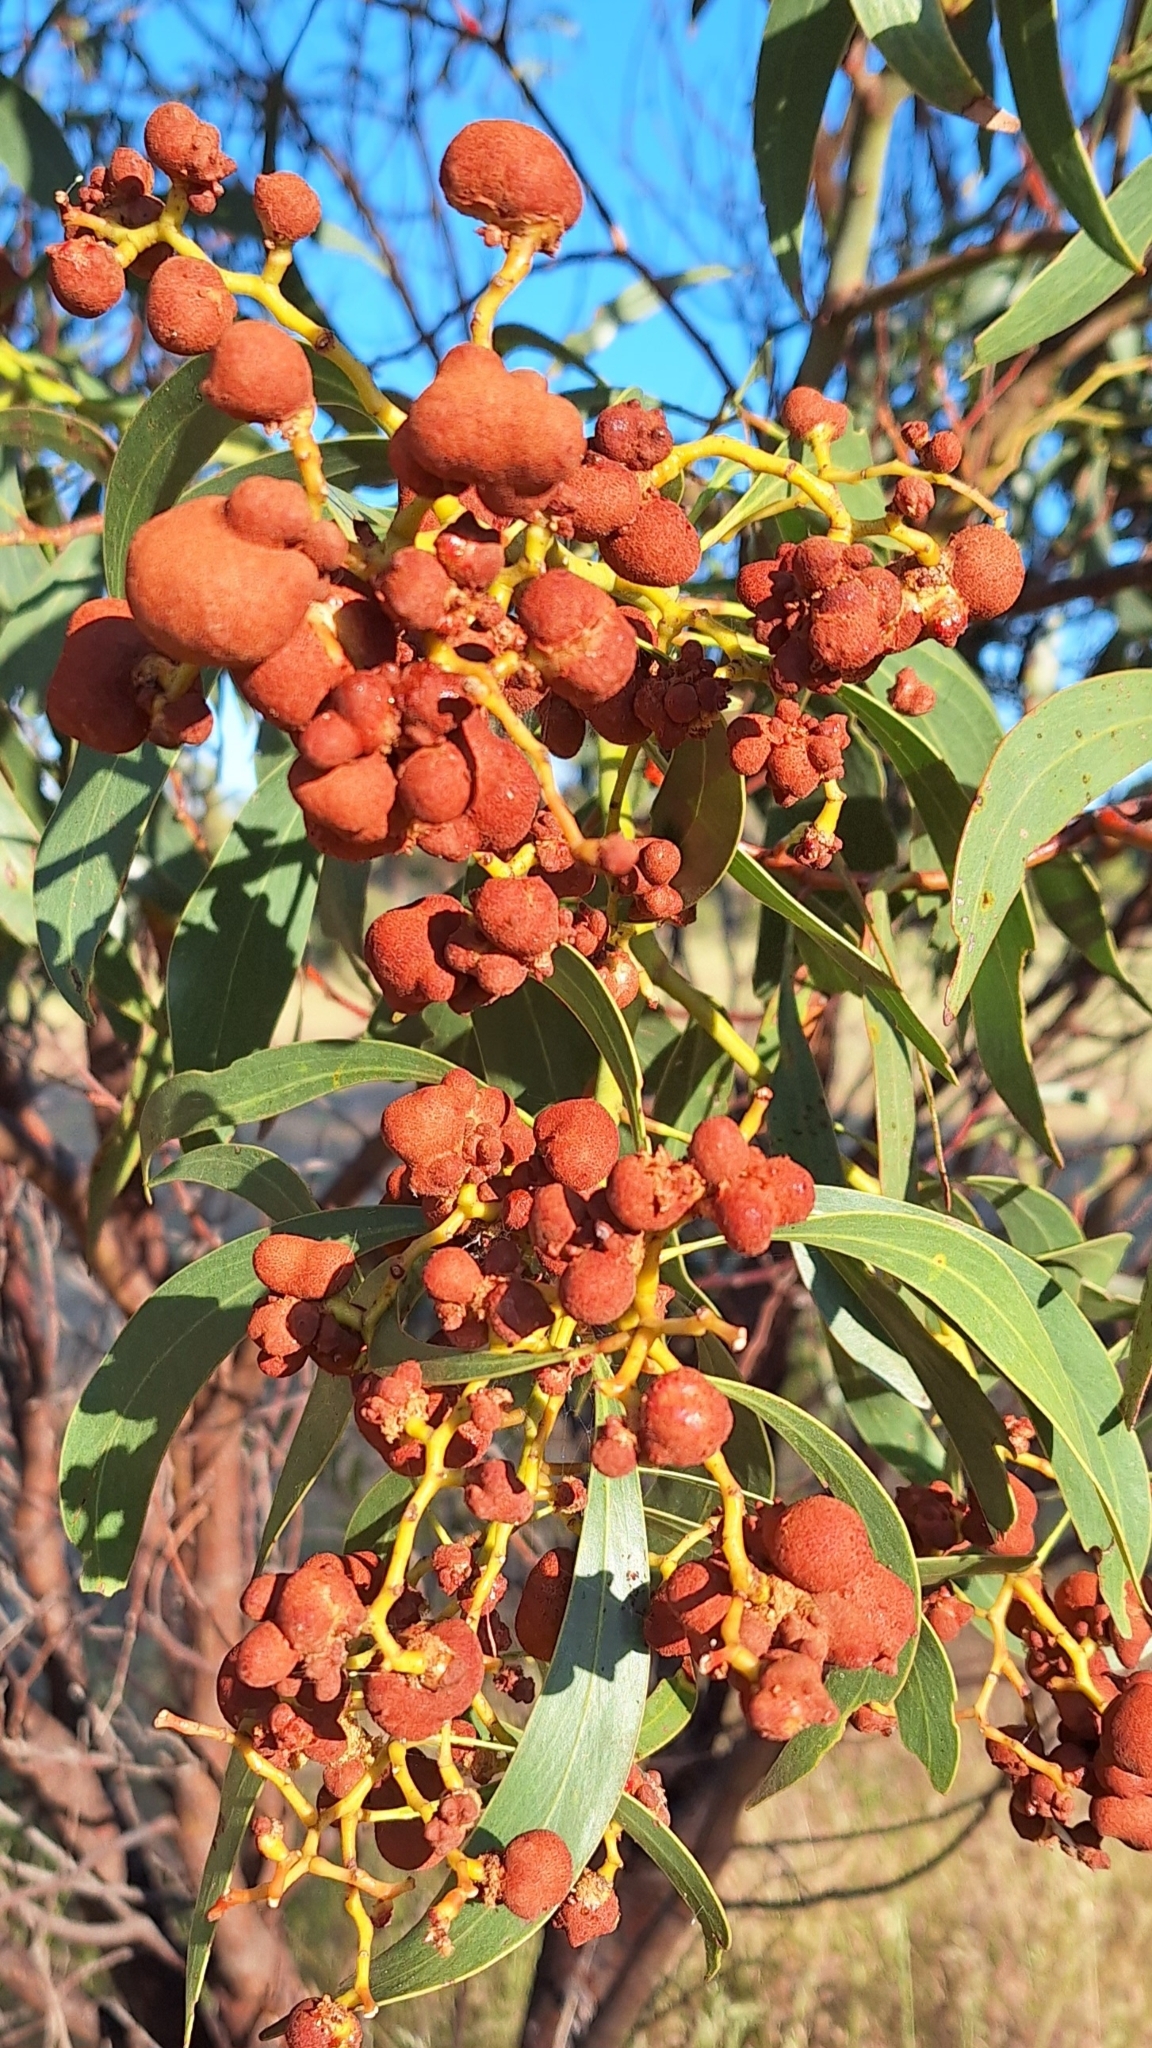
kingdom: Fungi
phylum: Basidiomycota
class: Pucciniomycetes
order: Pucciniales
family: Uromycladiaceae
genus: Uromycladium
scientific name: Uromycladium
